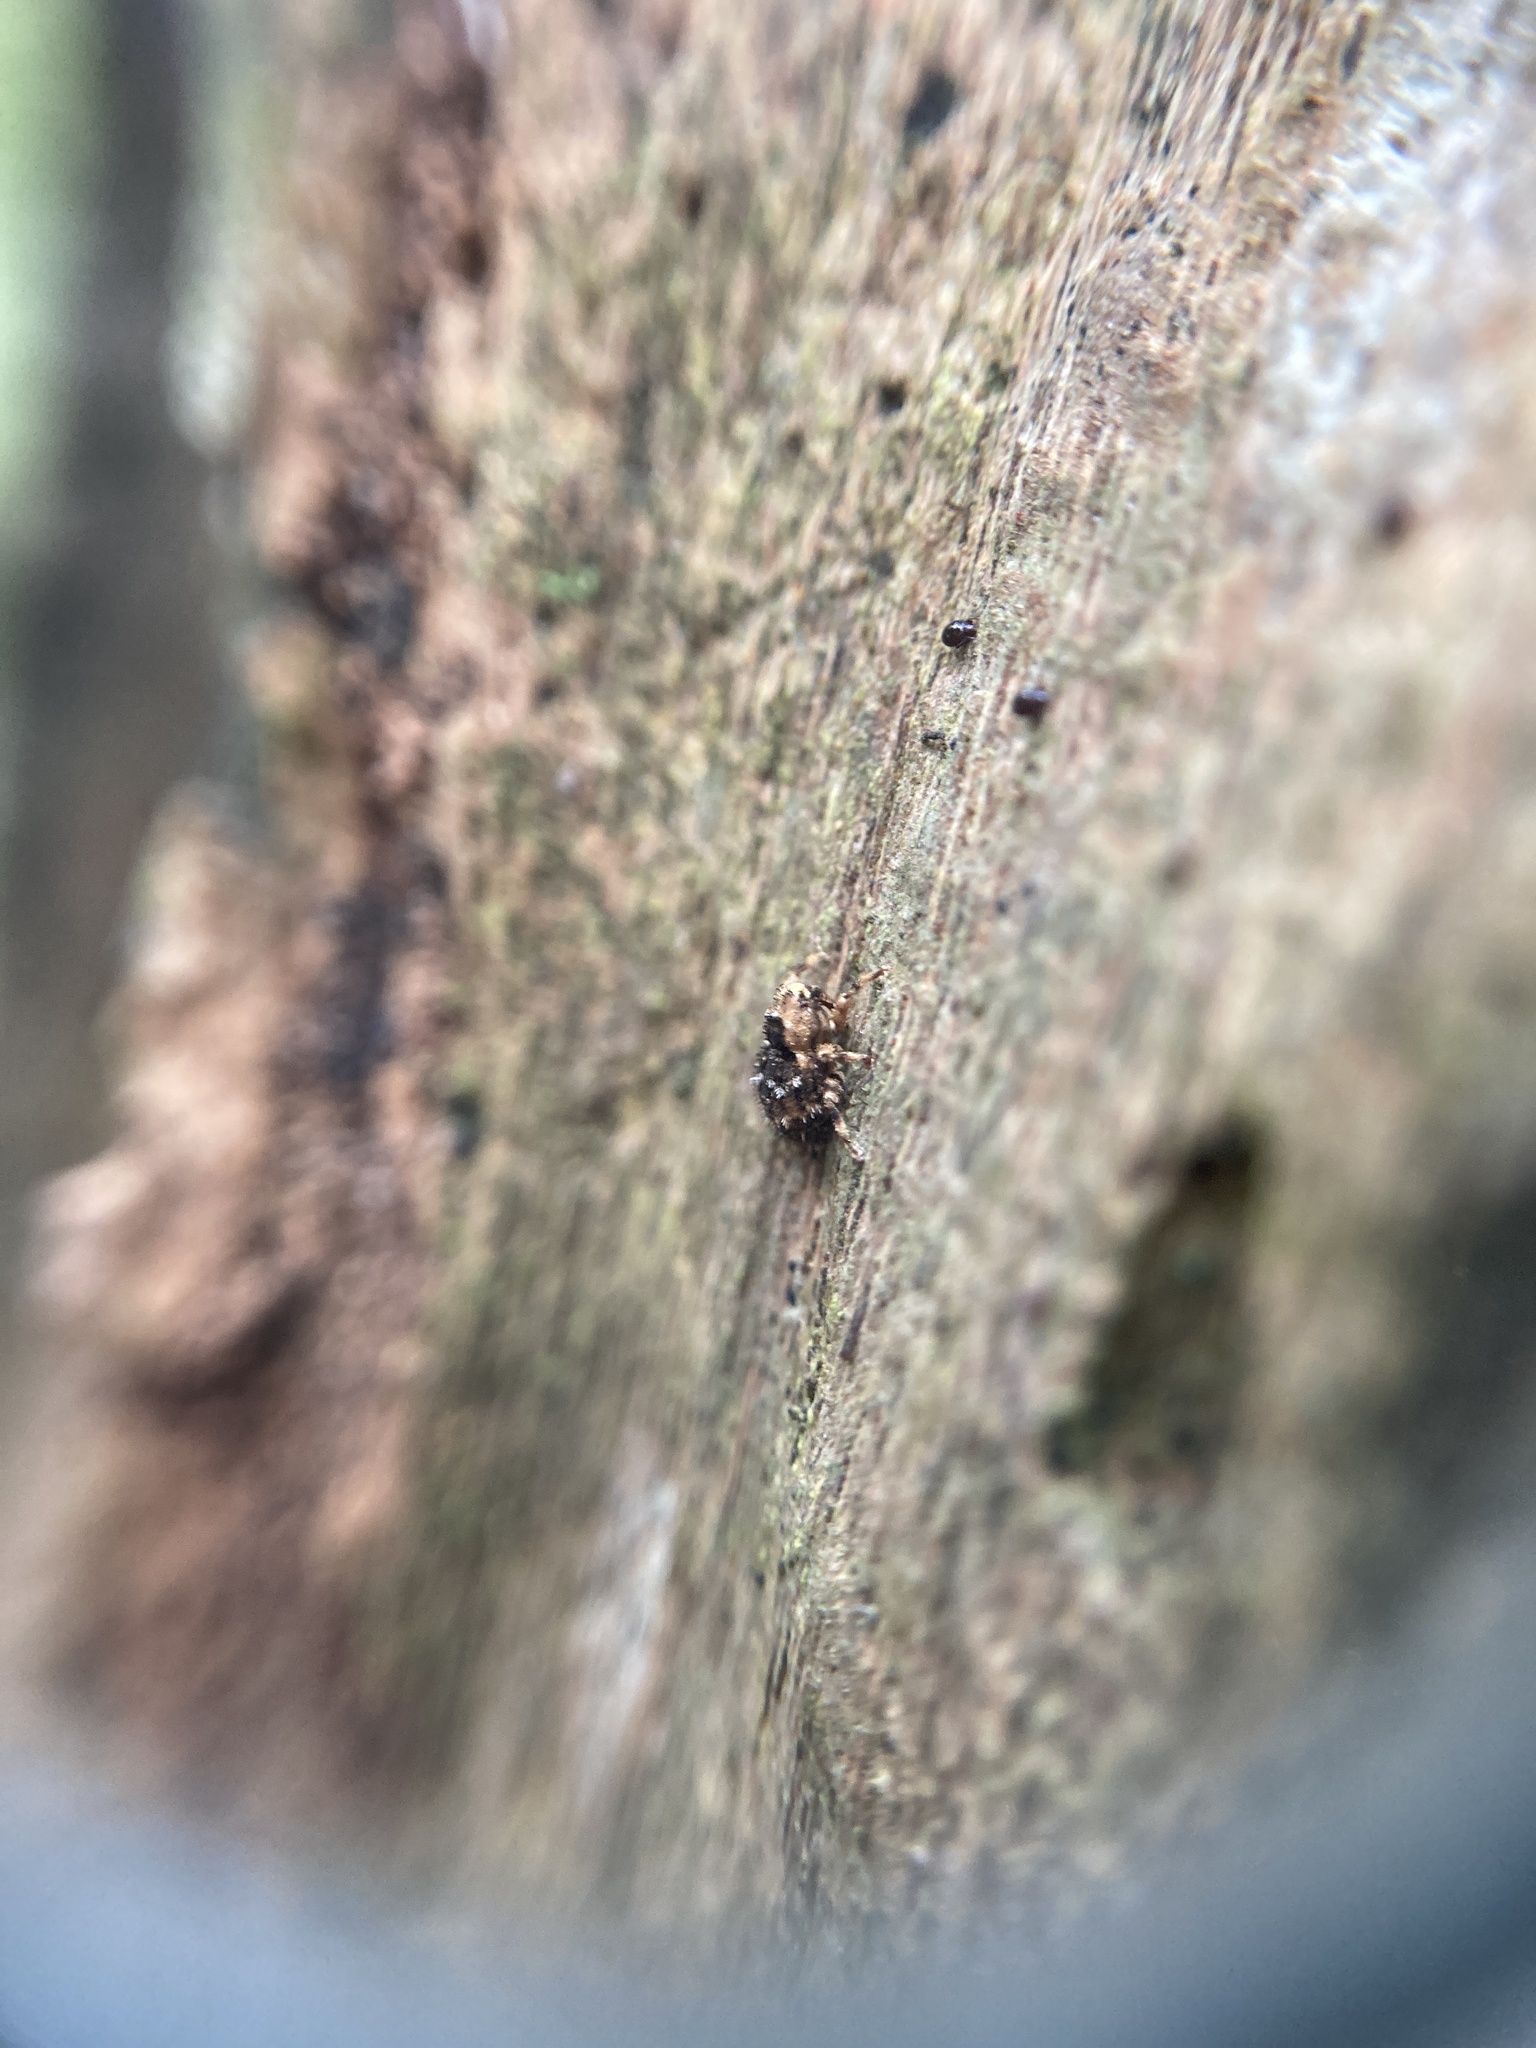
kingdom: Animalia
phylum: Arthropoda
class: Insecta
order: Coleoptera
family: Curculionidae
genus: Omoeacalles
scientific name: Omoeacalles crisioides
